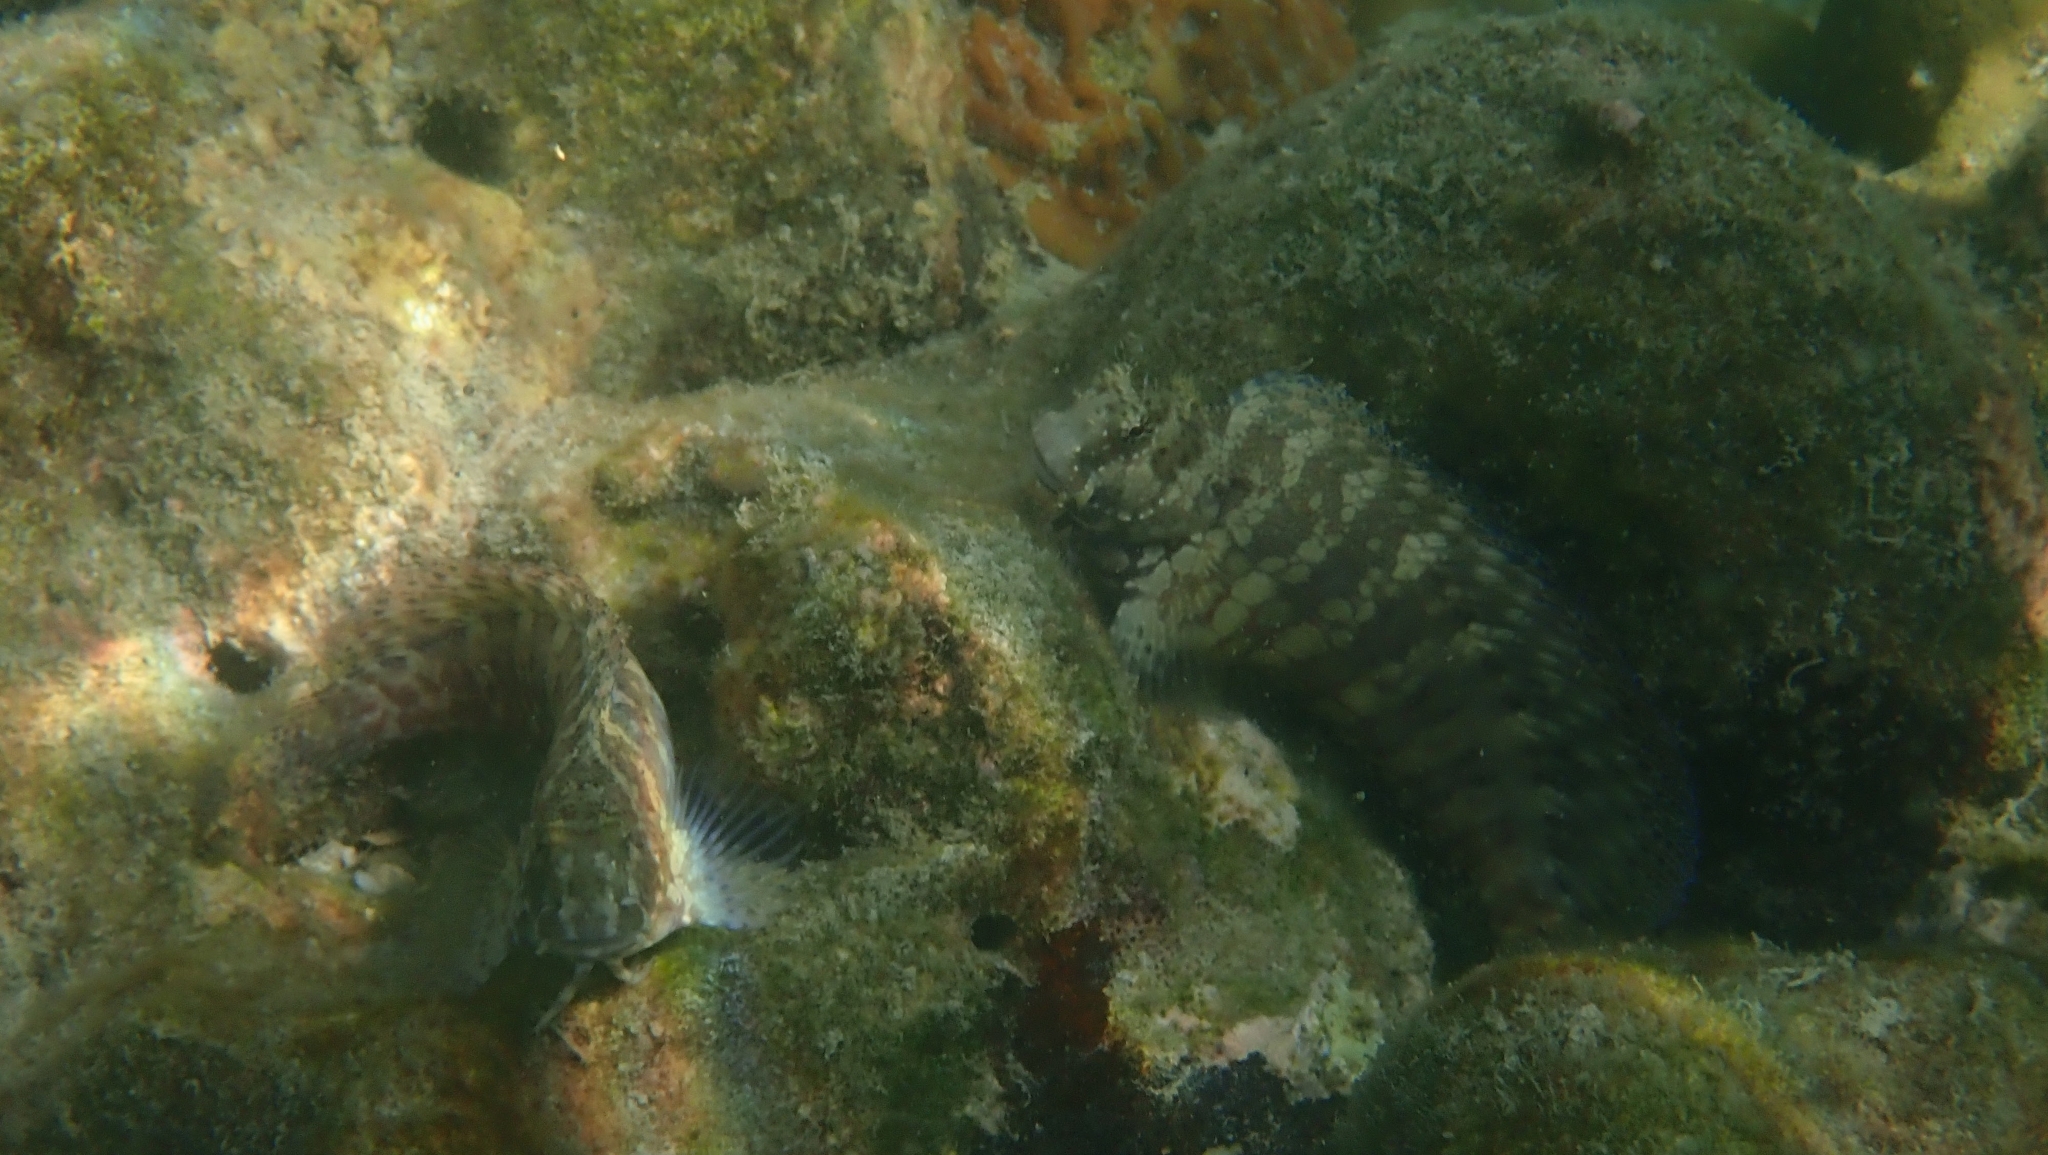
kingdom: Animalia
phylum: Chordata
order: Perciformes
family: Blenniidae
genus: Salarias
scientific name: Salarias fasciatus
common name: Jewelled blenny
